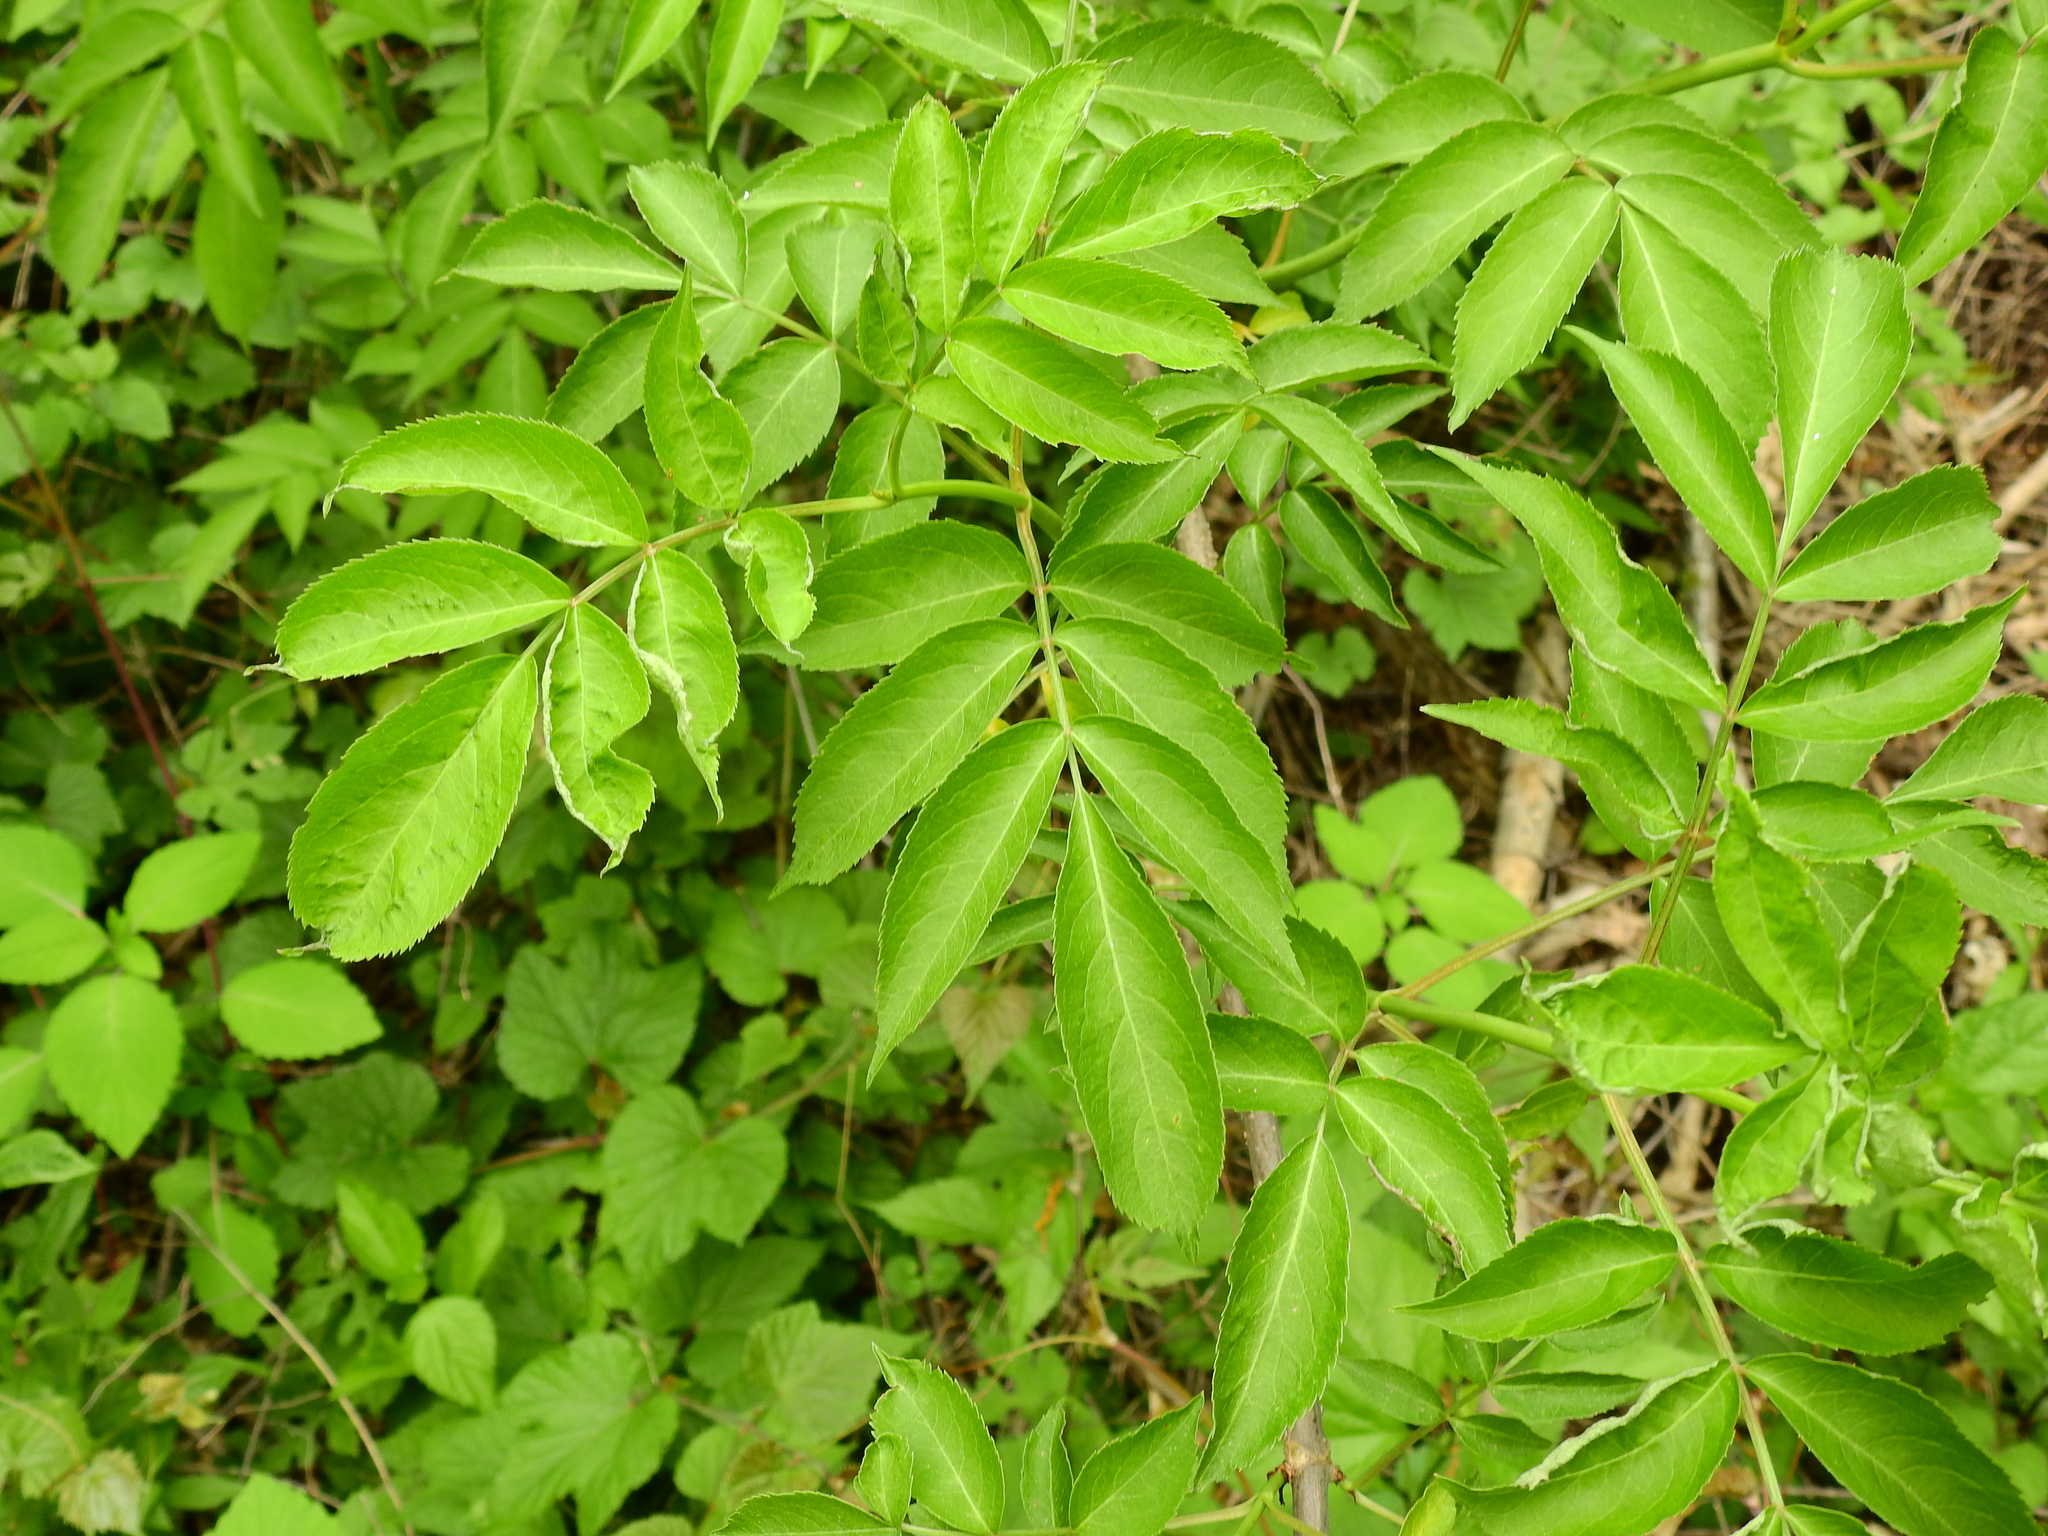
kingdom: Plantae
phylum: Tracheophyta
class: Magnoliopsida
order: Dipsacales
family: Viburnaceae
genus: Sambucus
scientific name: Sambucus canadensis
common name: American elder
